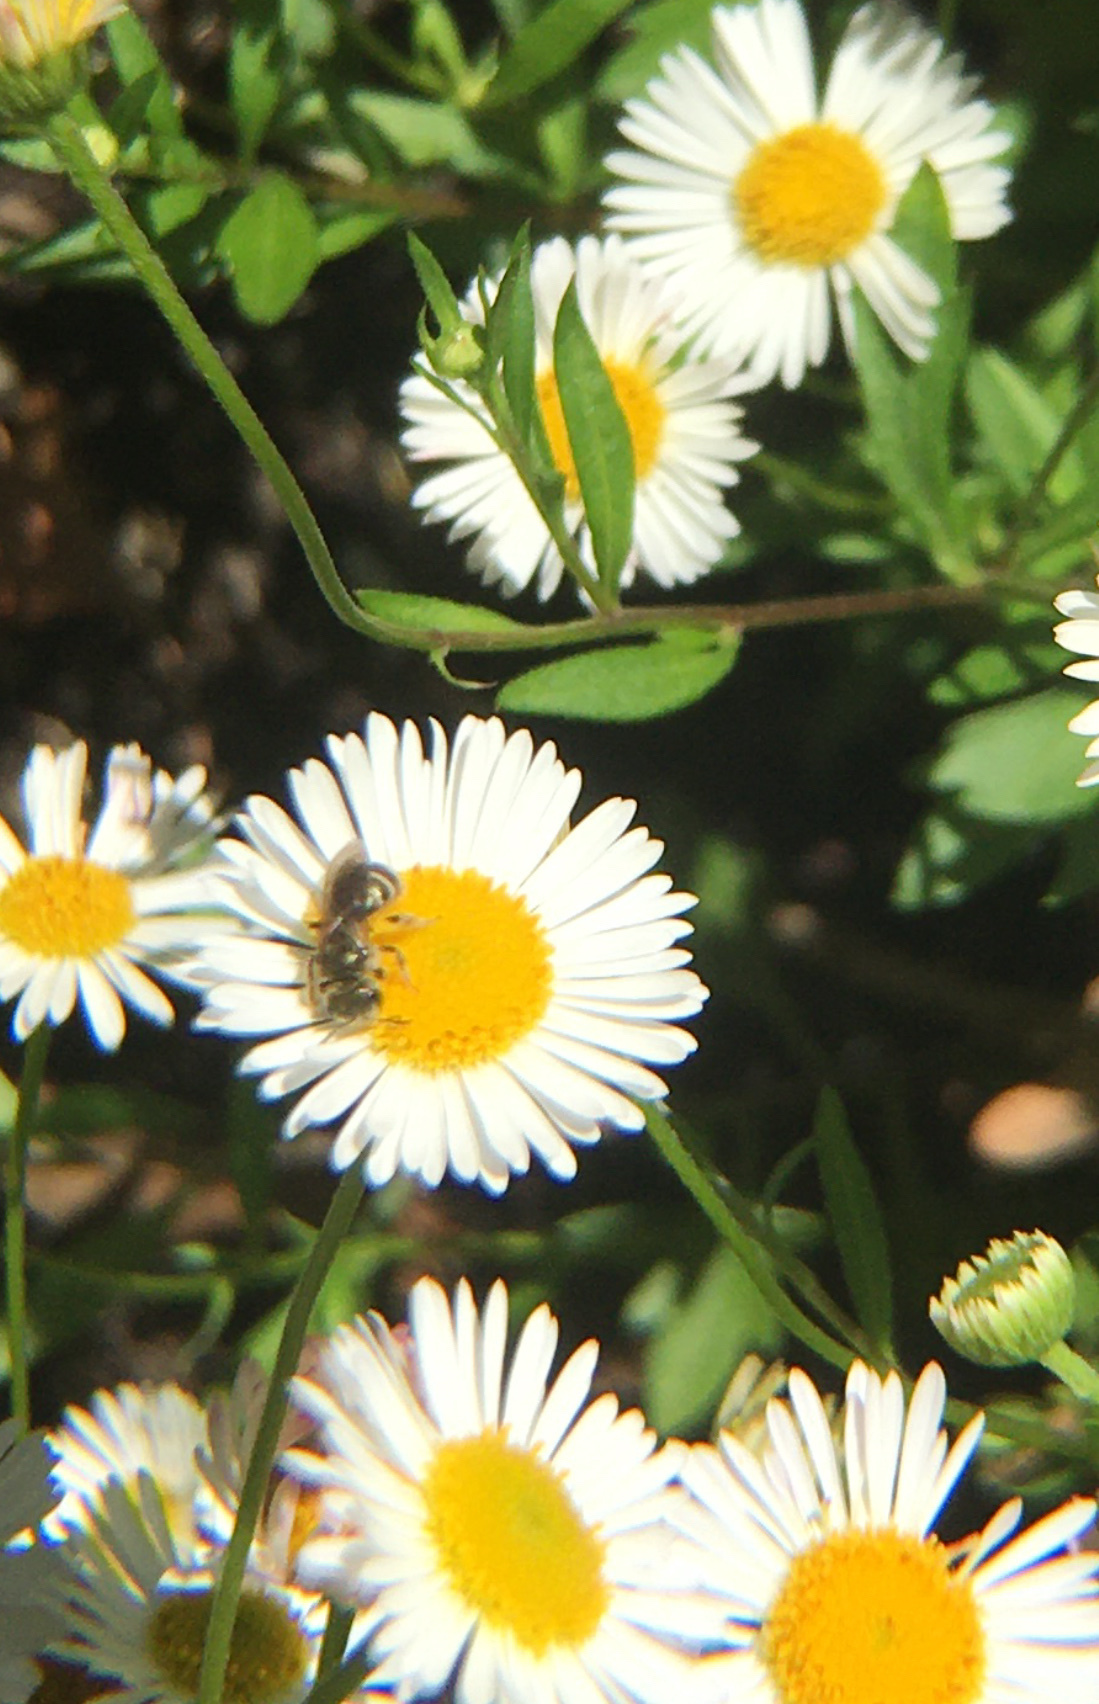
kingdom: Animalia
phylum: Arthropoda
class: Insecta
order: Hymenoptera
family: Halictidae
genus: Halictus
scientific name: Halictus tripartitus
